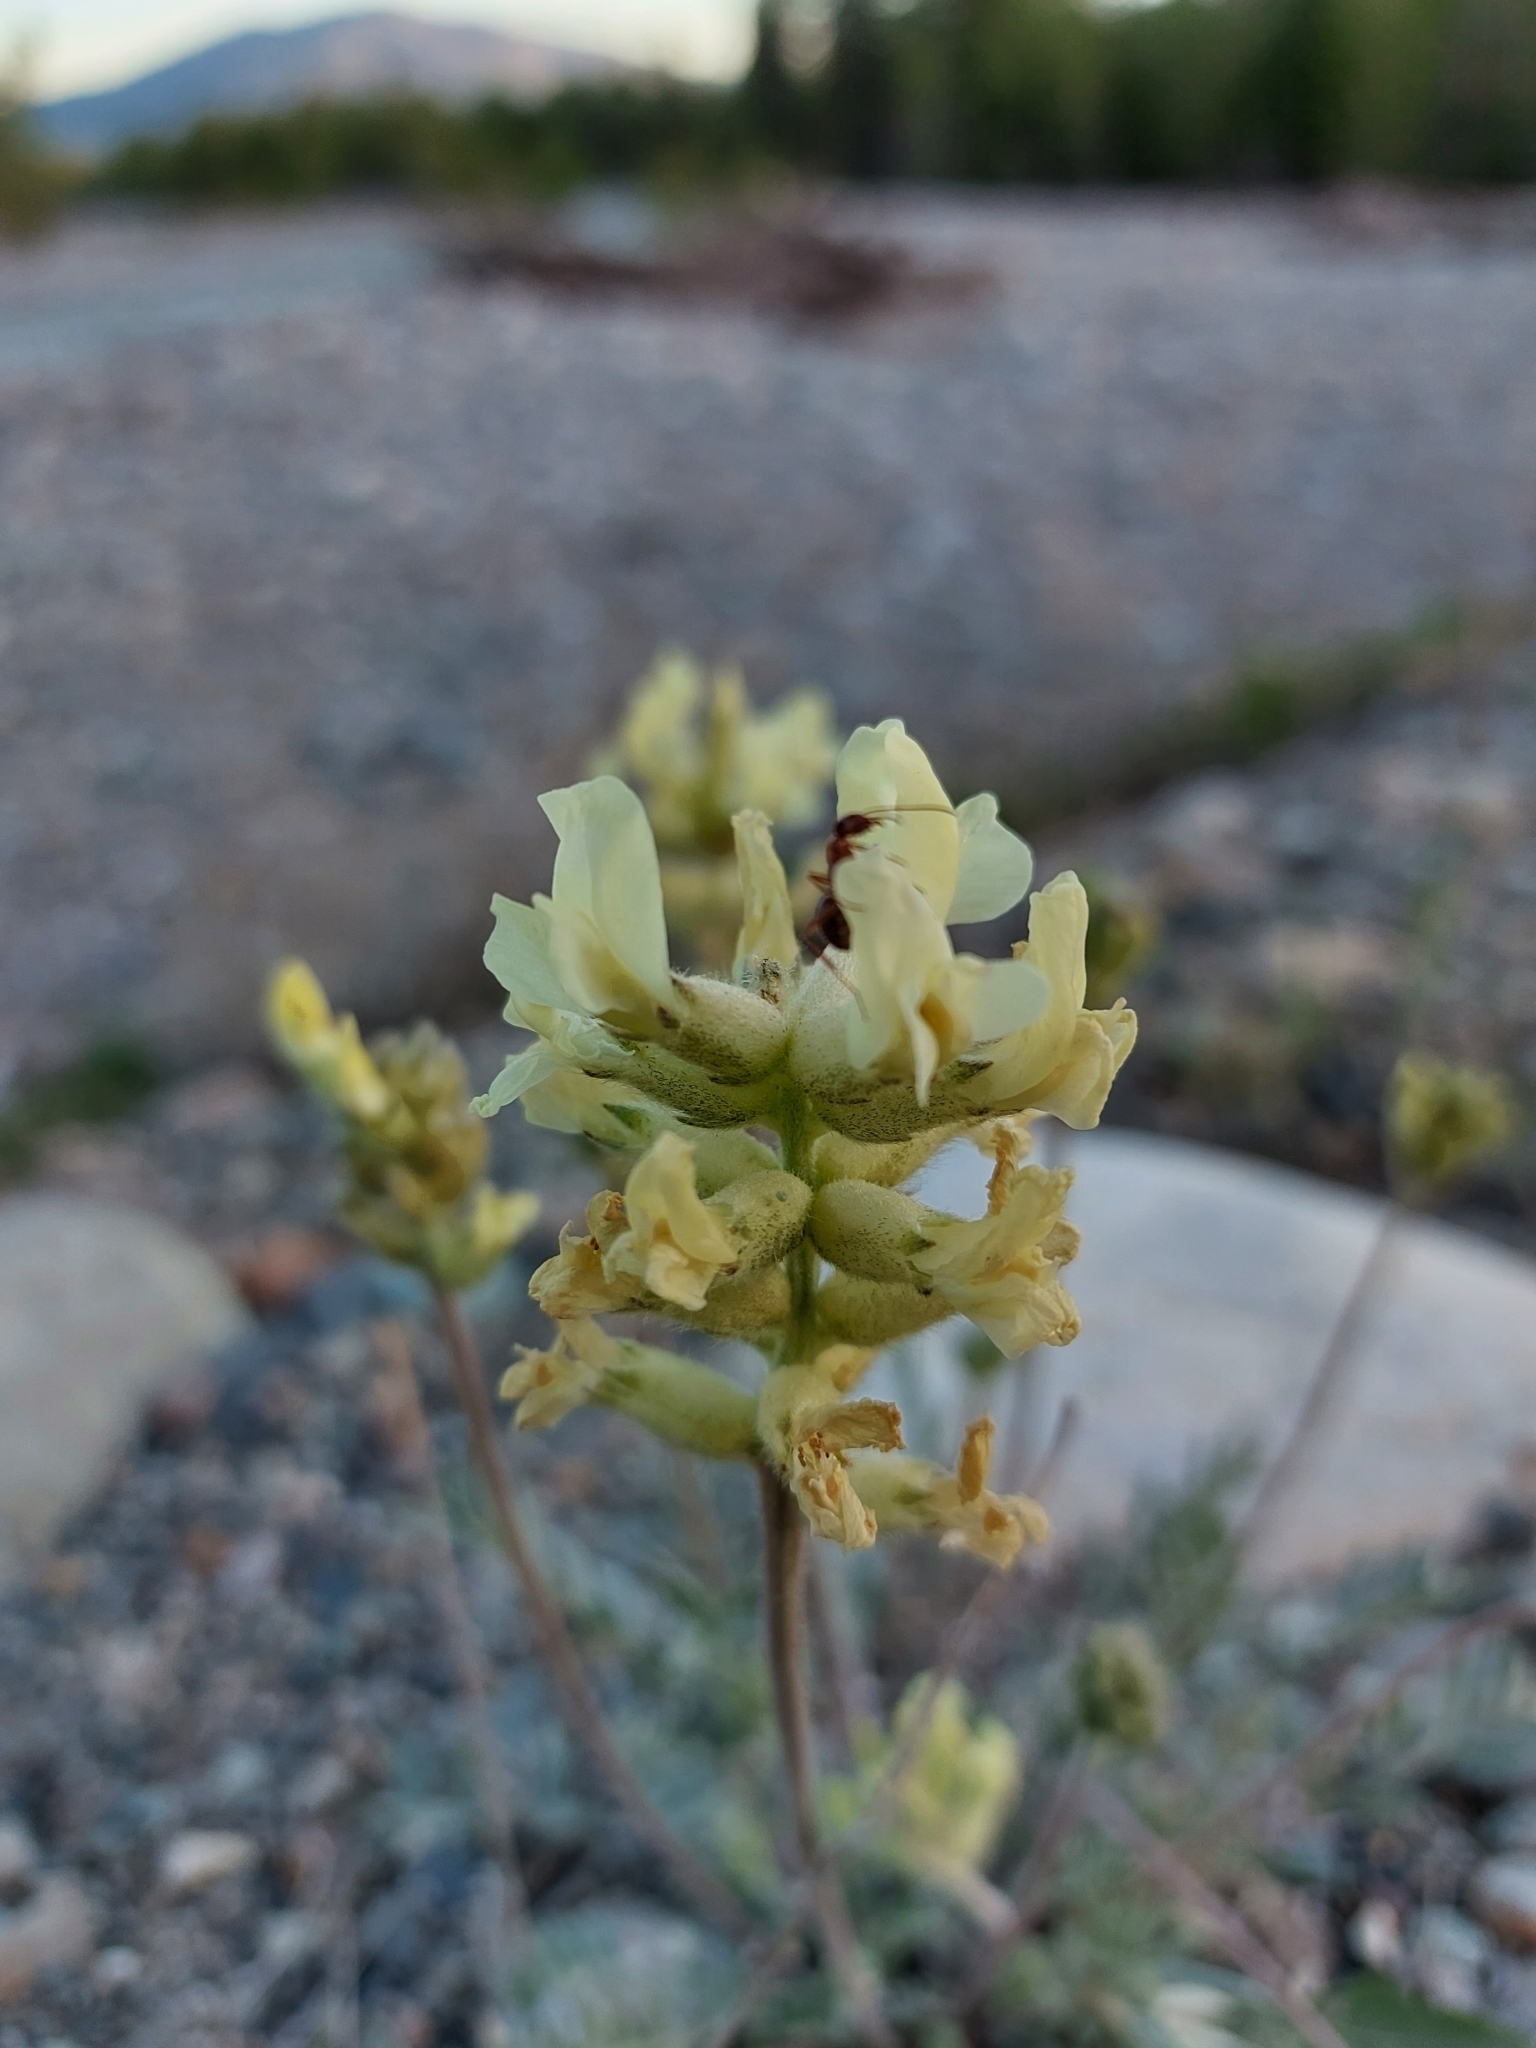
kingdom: Plantae
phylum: Tracheophyta
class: Magnoliopsida
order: Fabales
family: Fabaceae
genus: Oxytropis
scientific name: Oxytropis campestris
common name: Field locoweed
